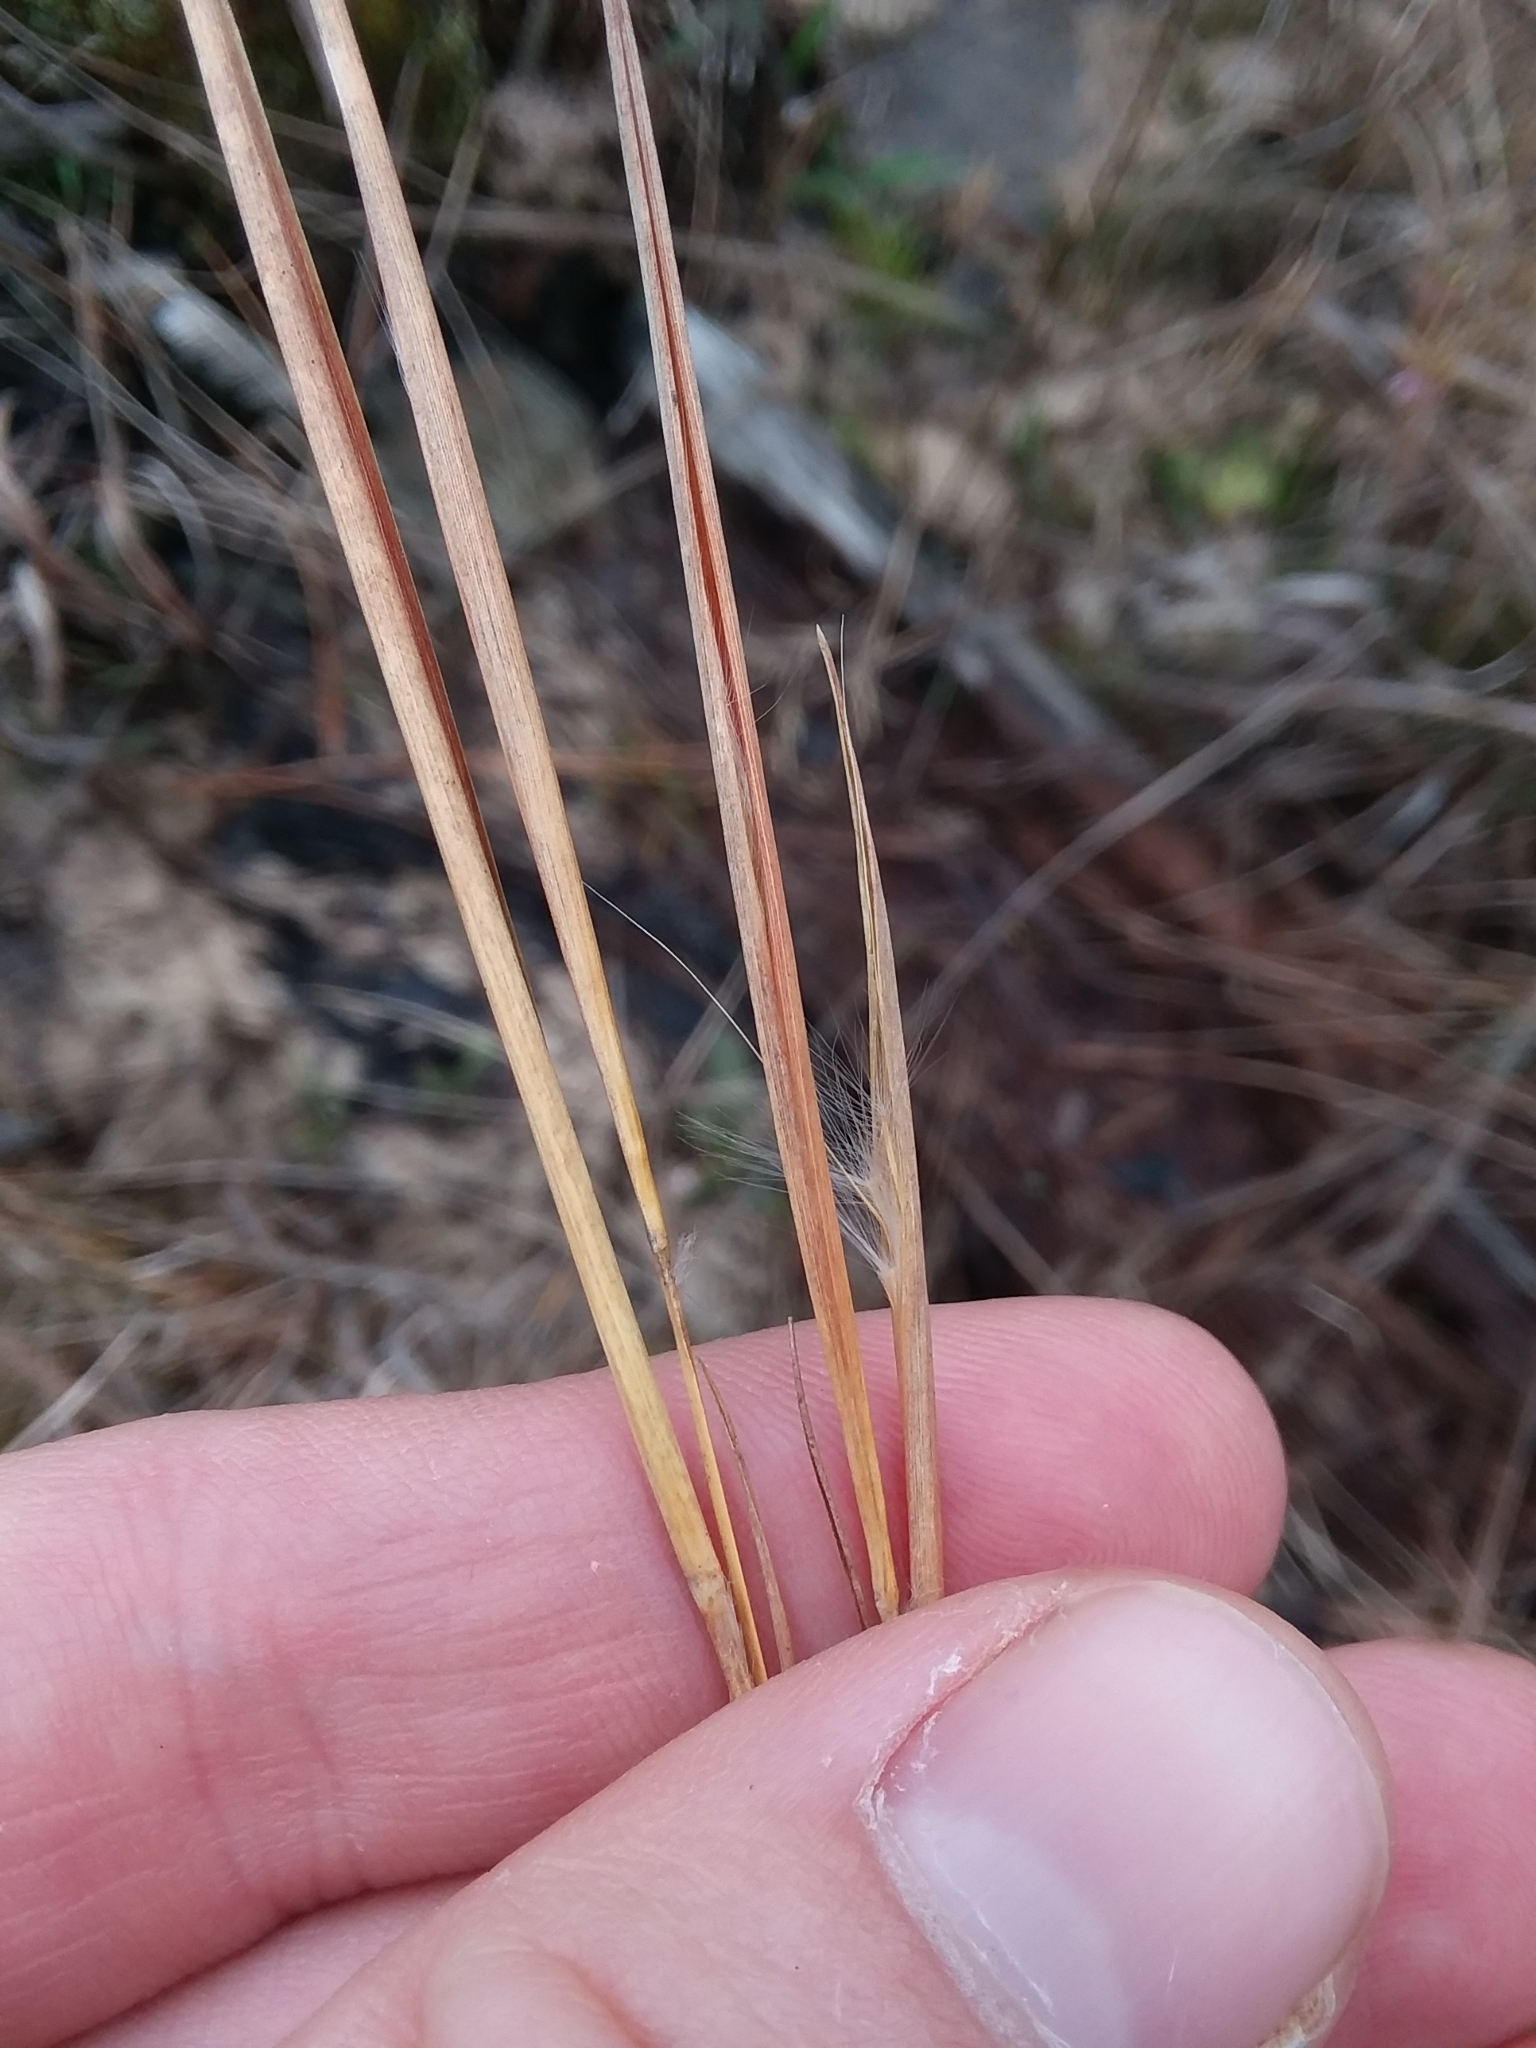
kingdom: Plantae
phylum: Tracheophyta
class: Liliopsida
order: Poales
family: Poaceae
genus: Andropogon
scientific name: Andropogon perangustatus
